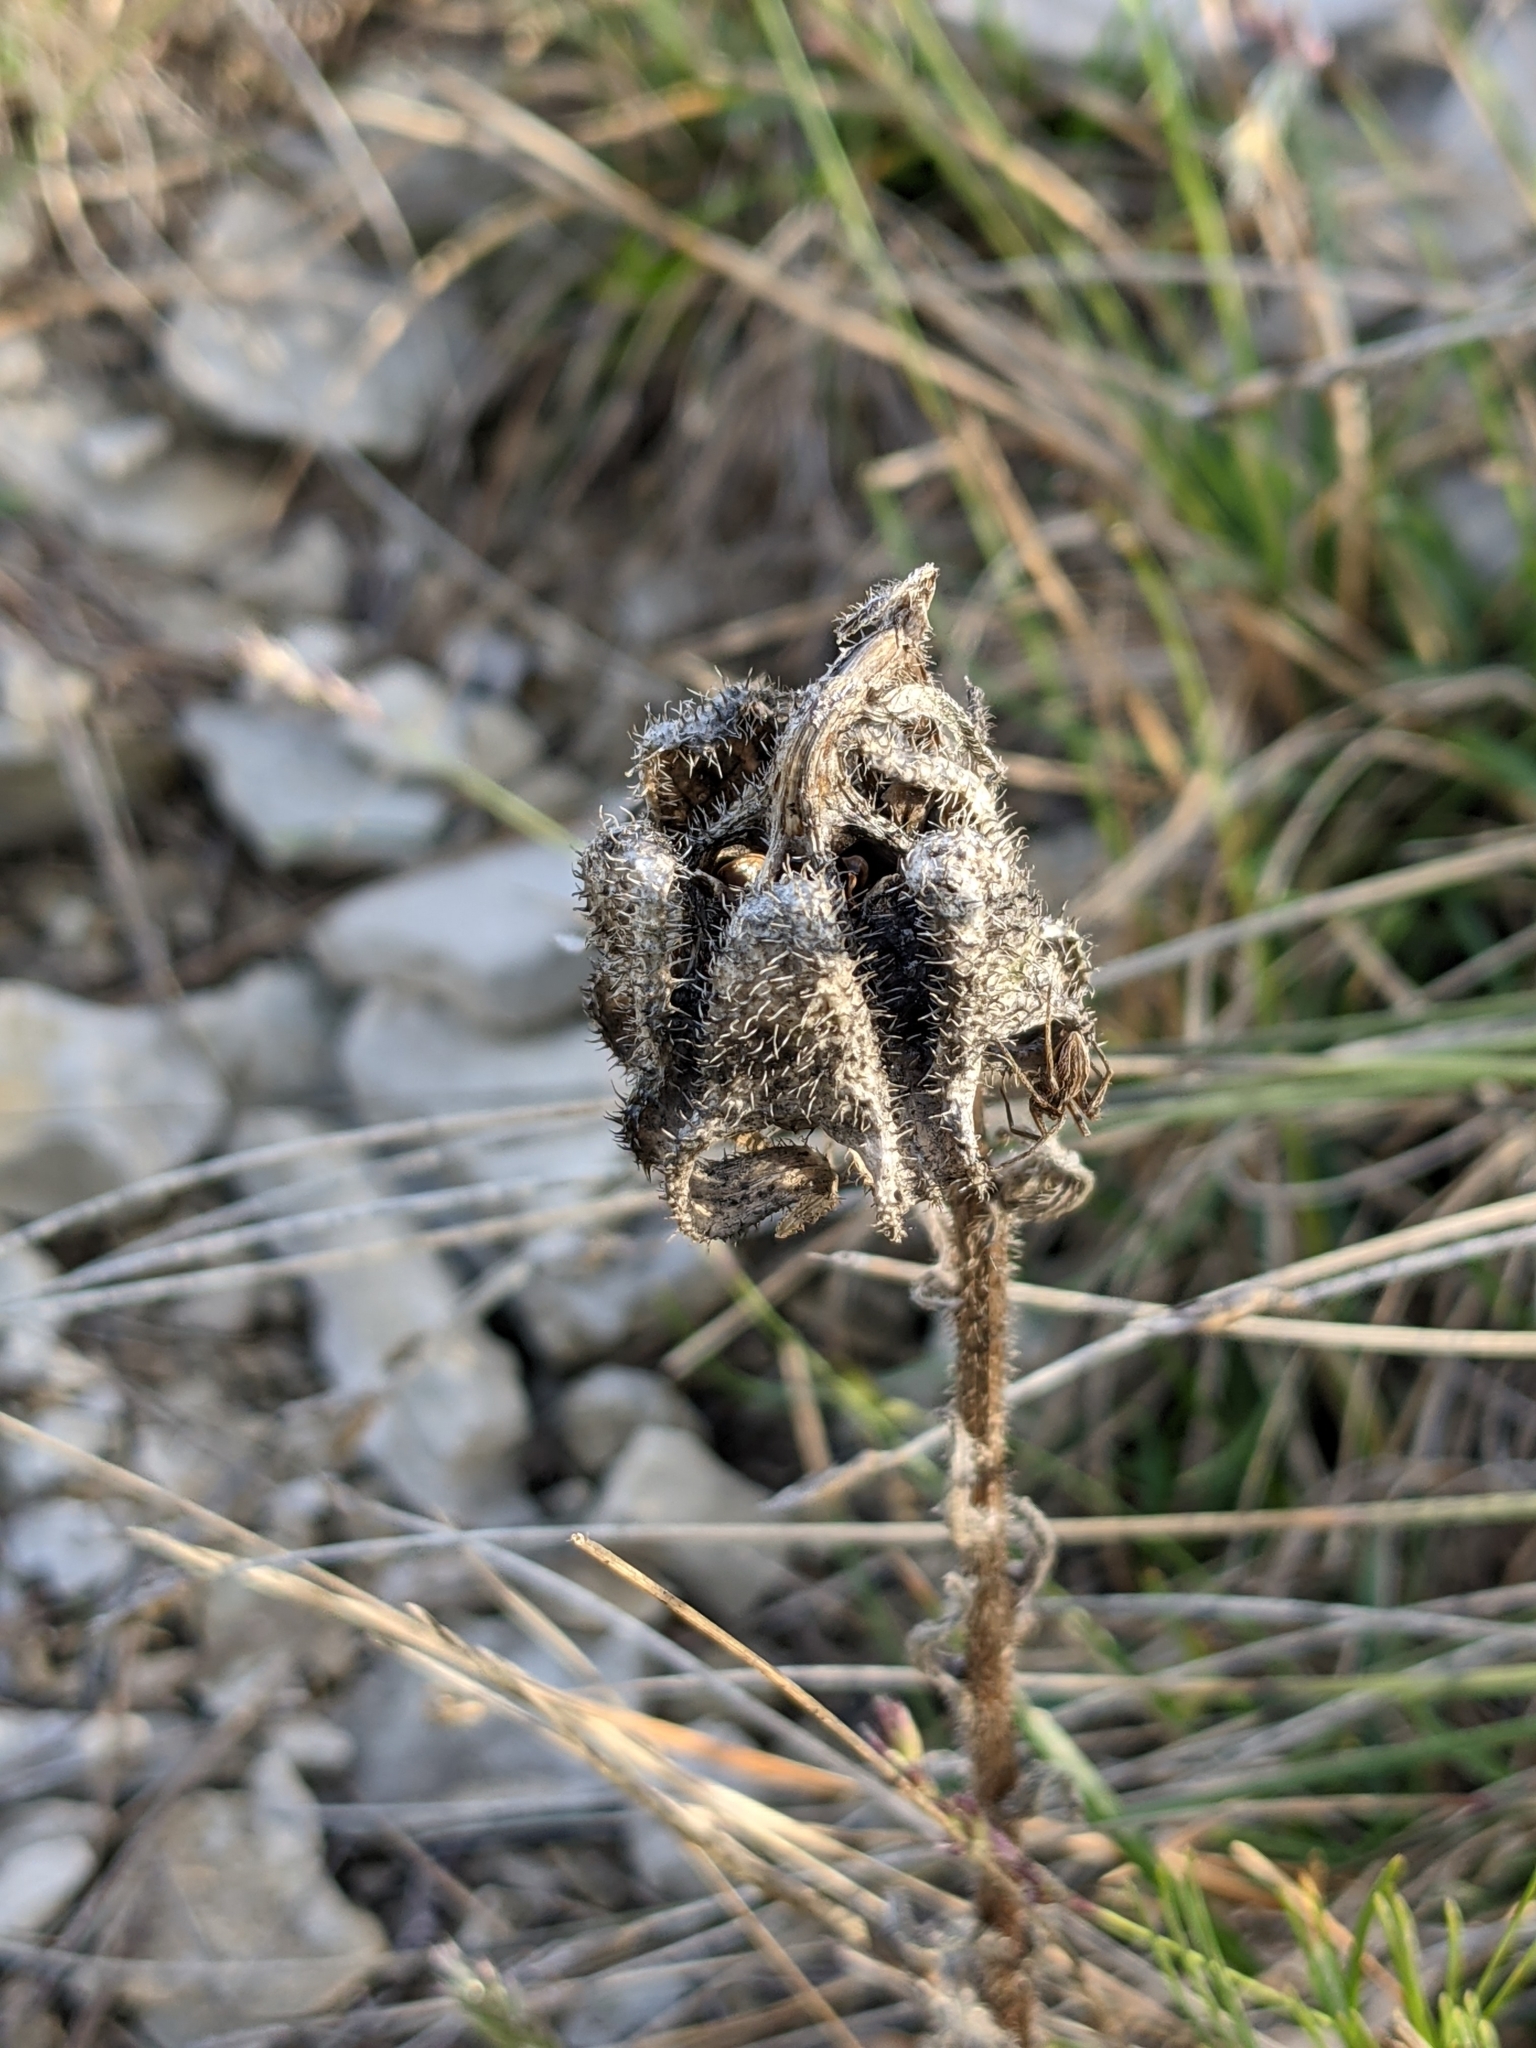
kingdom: Plantae
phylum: Tracheophyta
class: Magnoliopsida
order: Asterales
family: Campanulaceae
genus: Campanula
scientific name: Campanula speciosa
